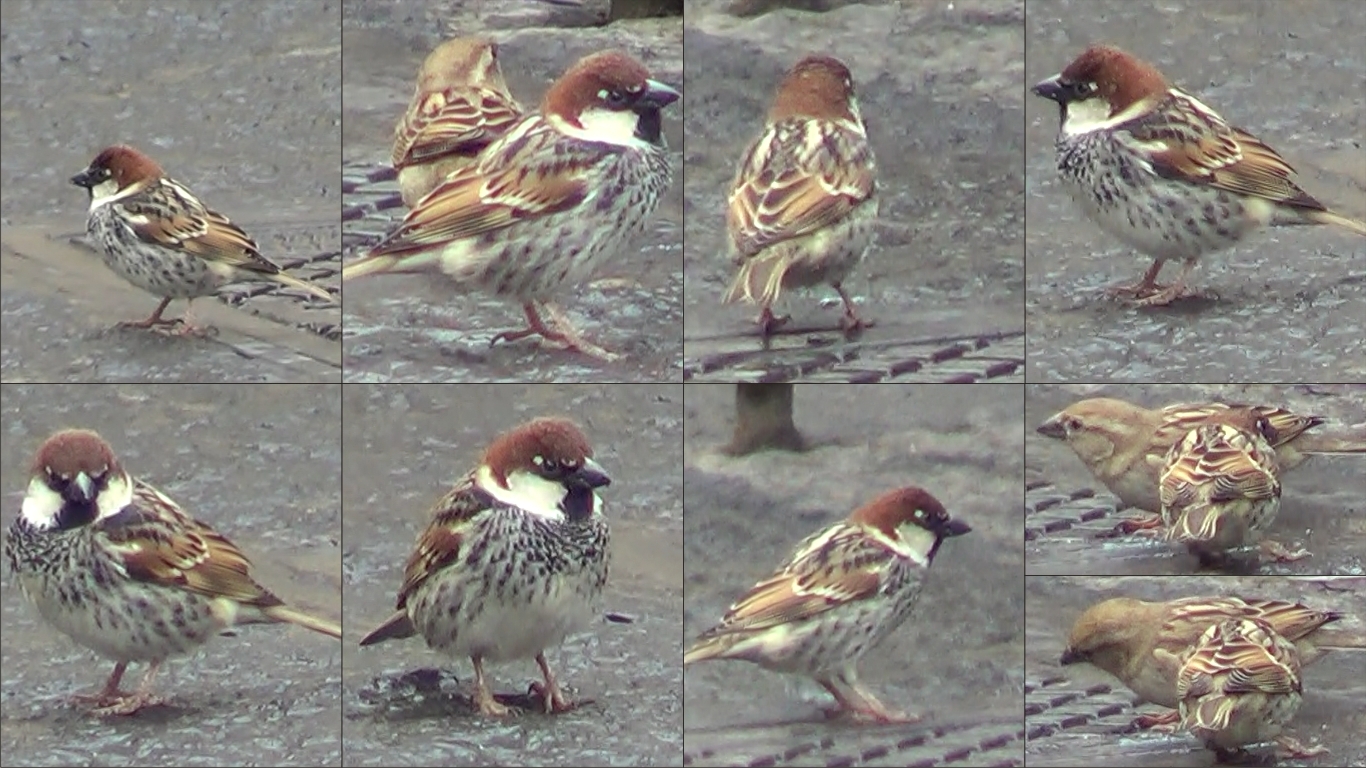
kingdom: Animalia
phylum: Chordata
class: Aves
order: Passeriformes
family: Passeridae
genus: Passer
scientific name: Passer hispaniolensis
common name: Spanish sparrow
